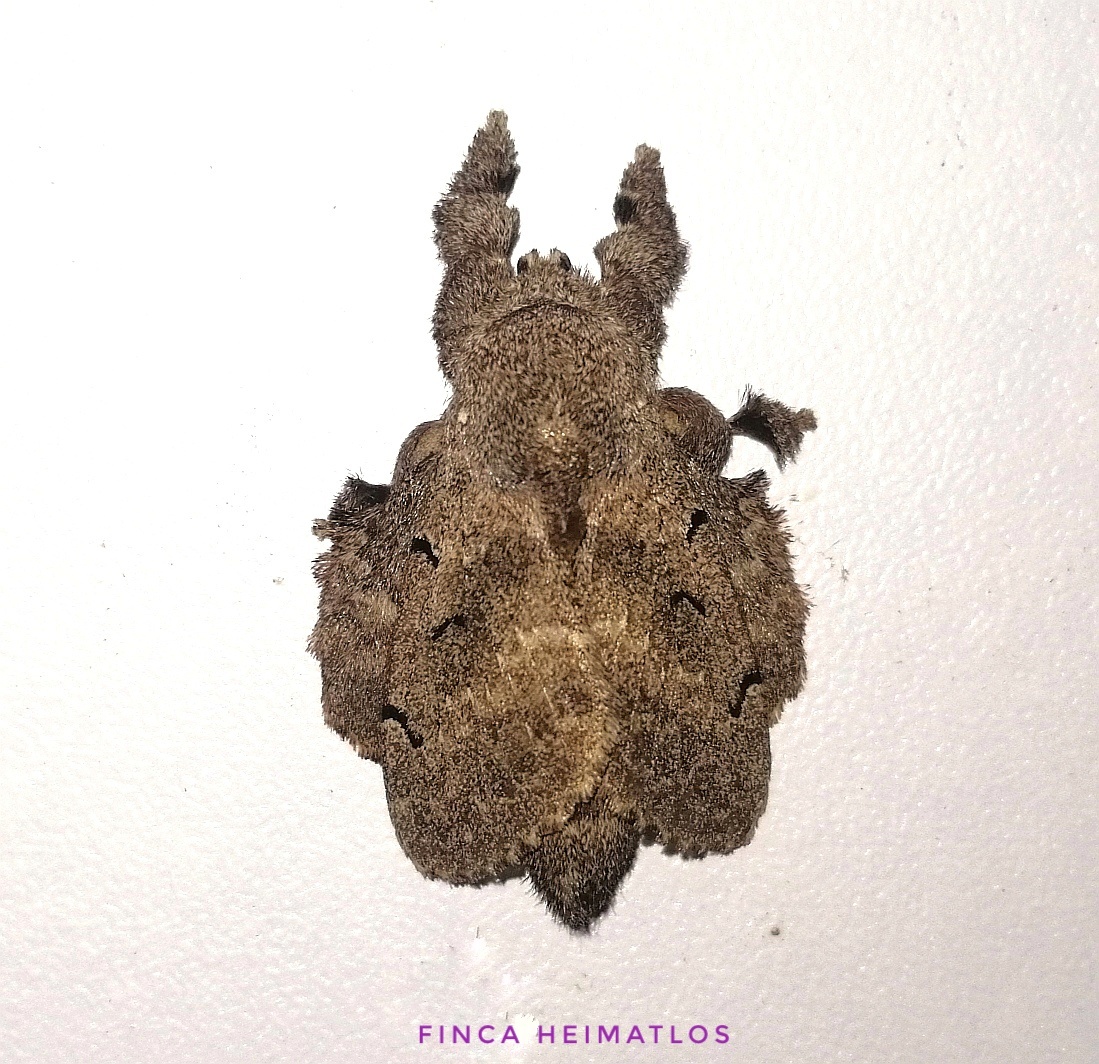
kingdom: Animalia
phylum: Arthropoda
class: Insecta
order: Lepidoptera
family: Lasiocampidae
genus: Euglyphis
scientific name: Euglyphis grammophora
